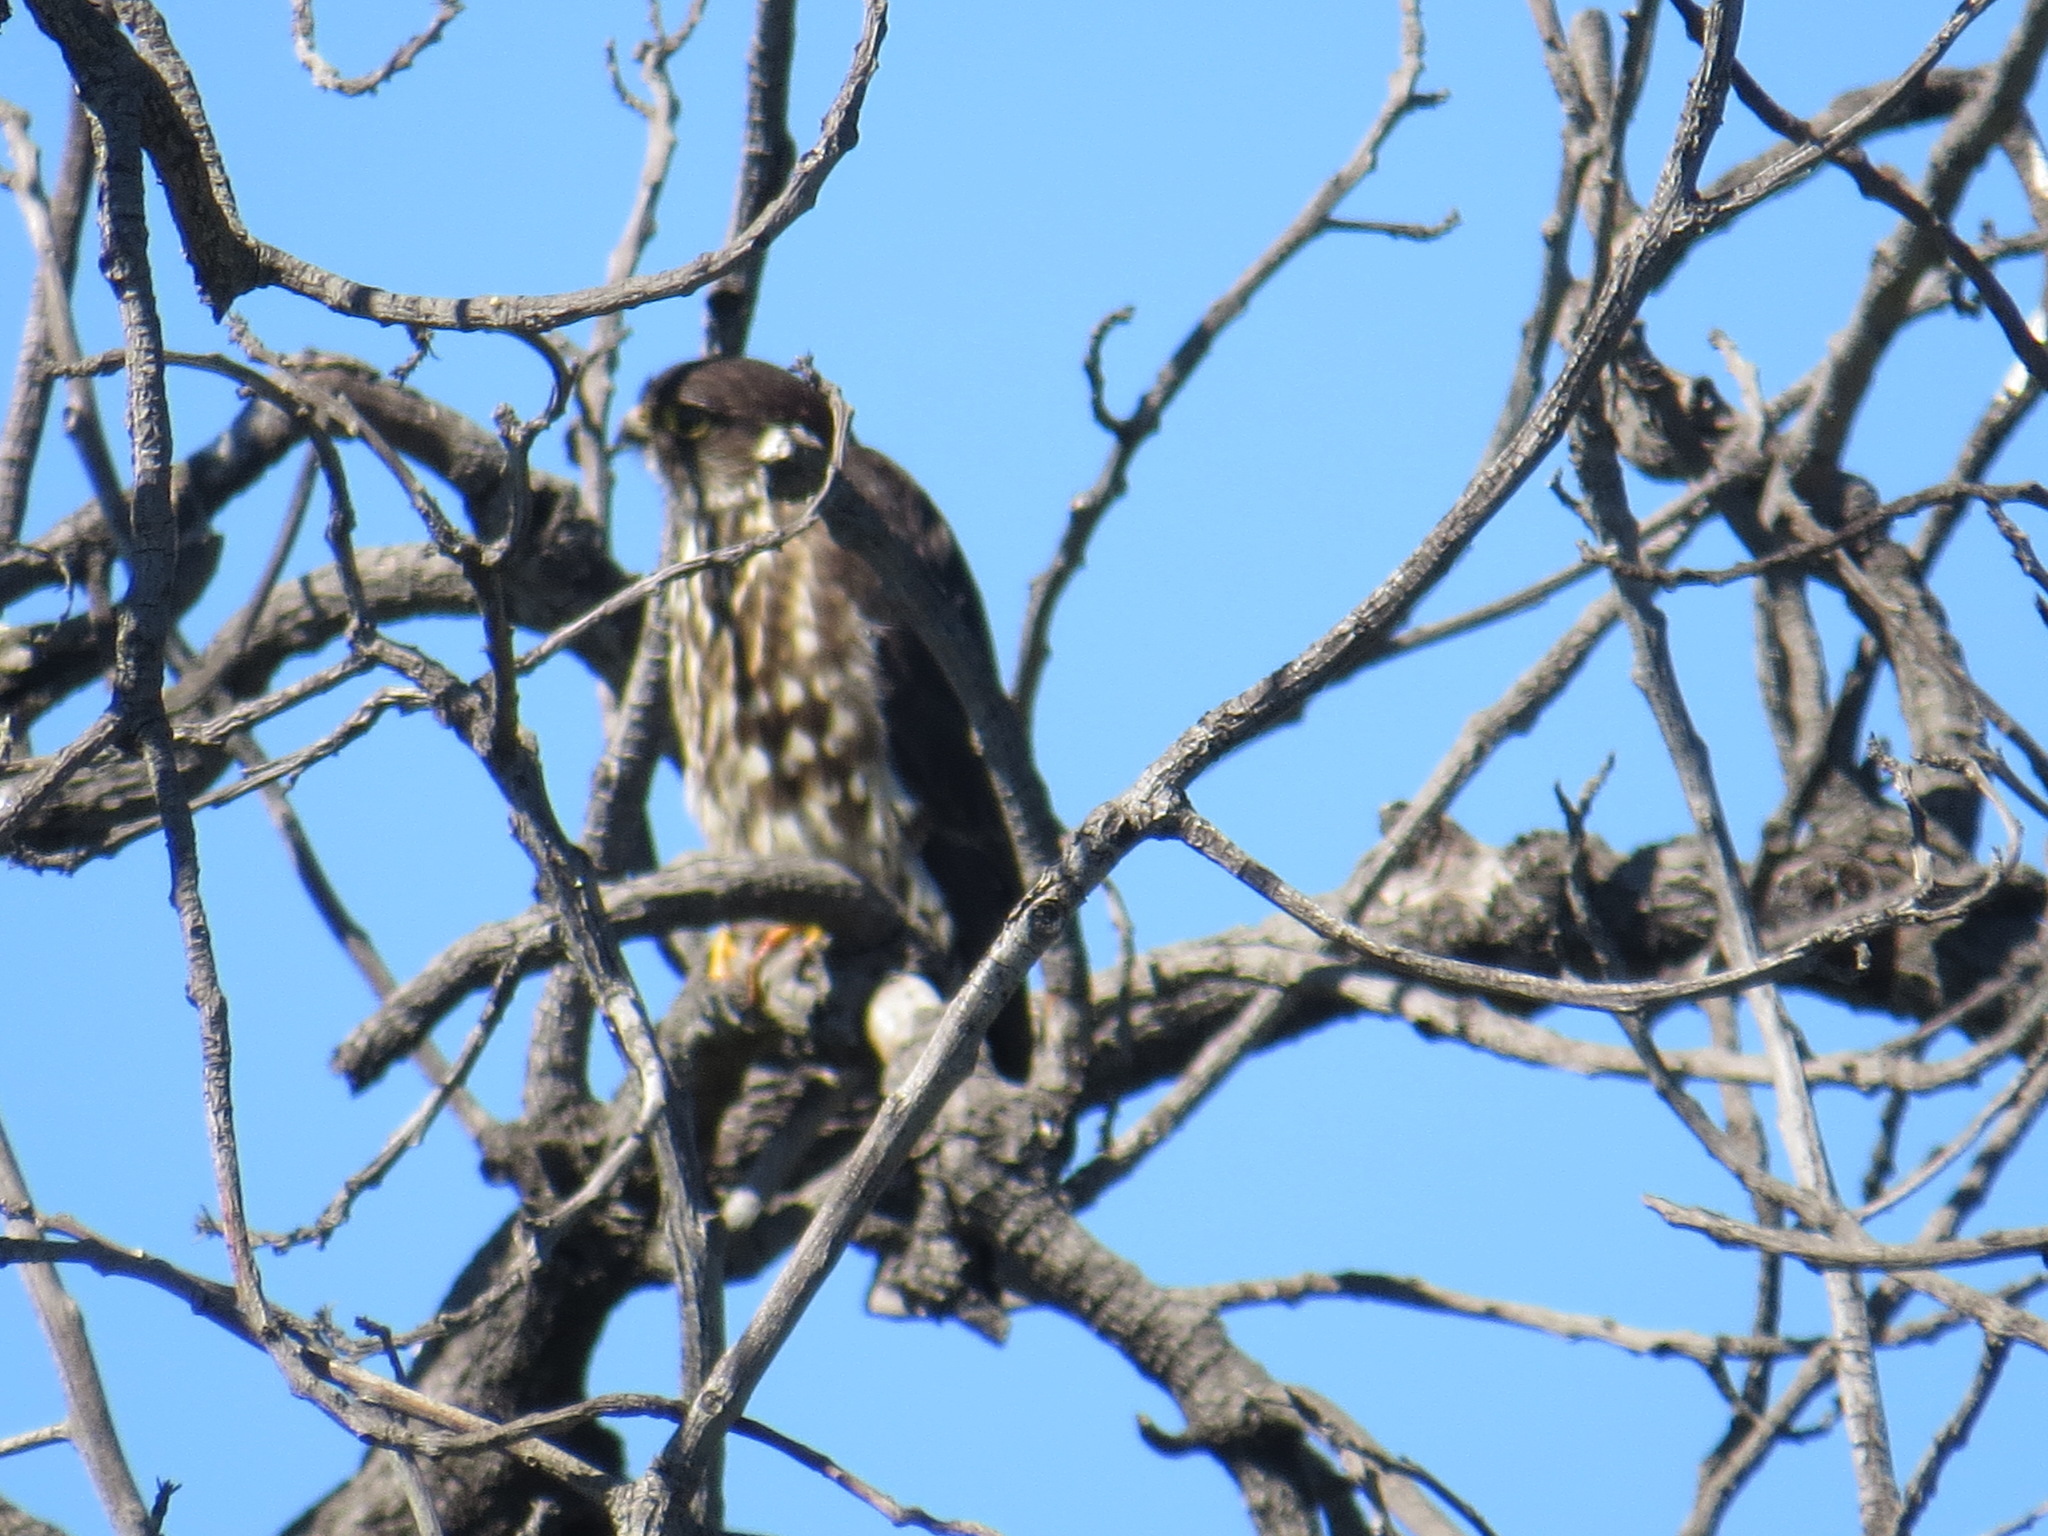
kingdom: Animalia
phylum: Chordata
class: Aves
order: Falconiformes
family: Falconidae
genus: Falco
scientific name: Falco columbarius
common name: Merlin
